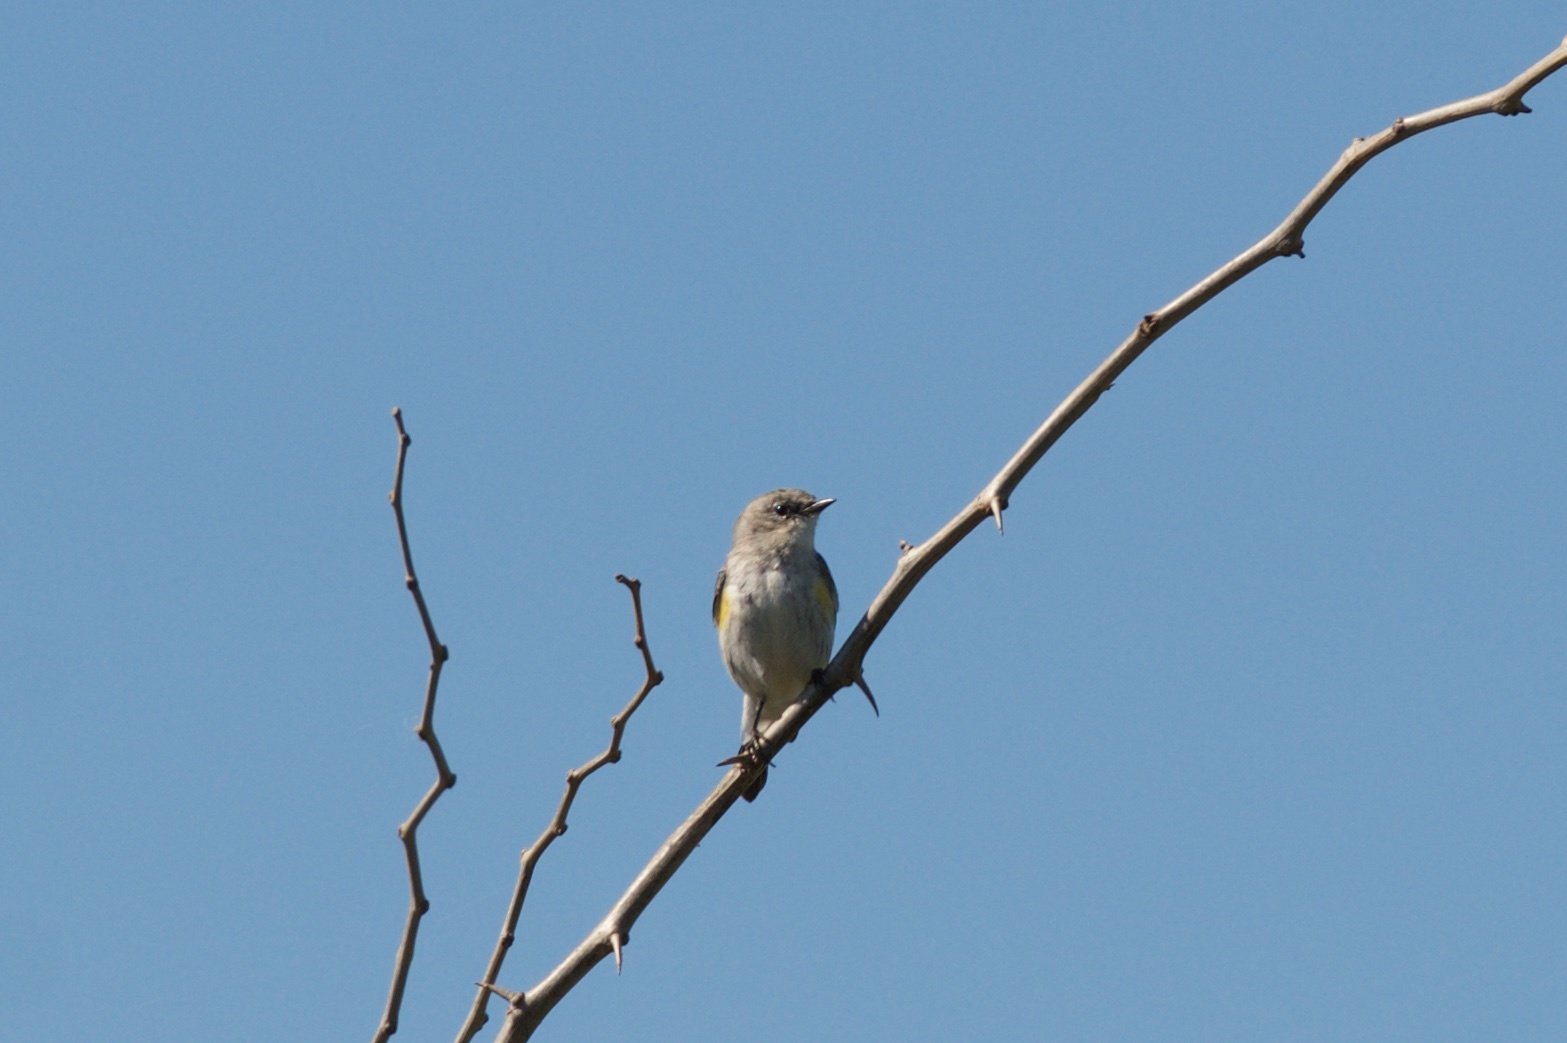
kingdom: Animalia
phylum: Chordata
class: Aves
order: Passeriformes
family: Parulidae
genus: Setophaga
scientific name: Setophaga coronata
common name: Myrtle warbler
